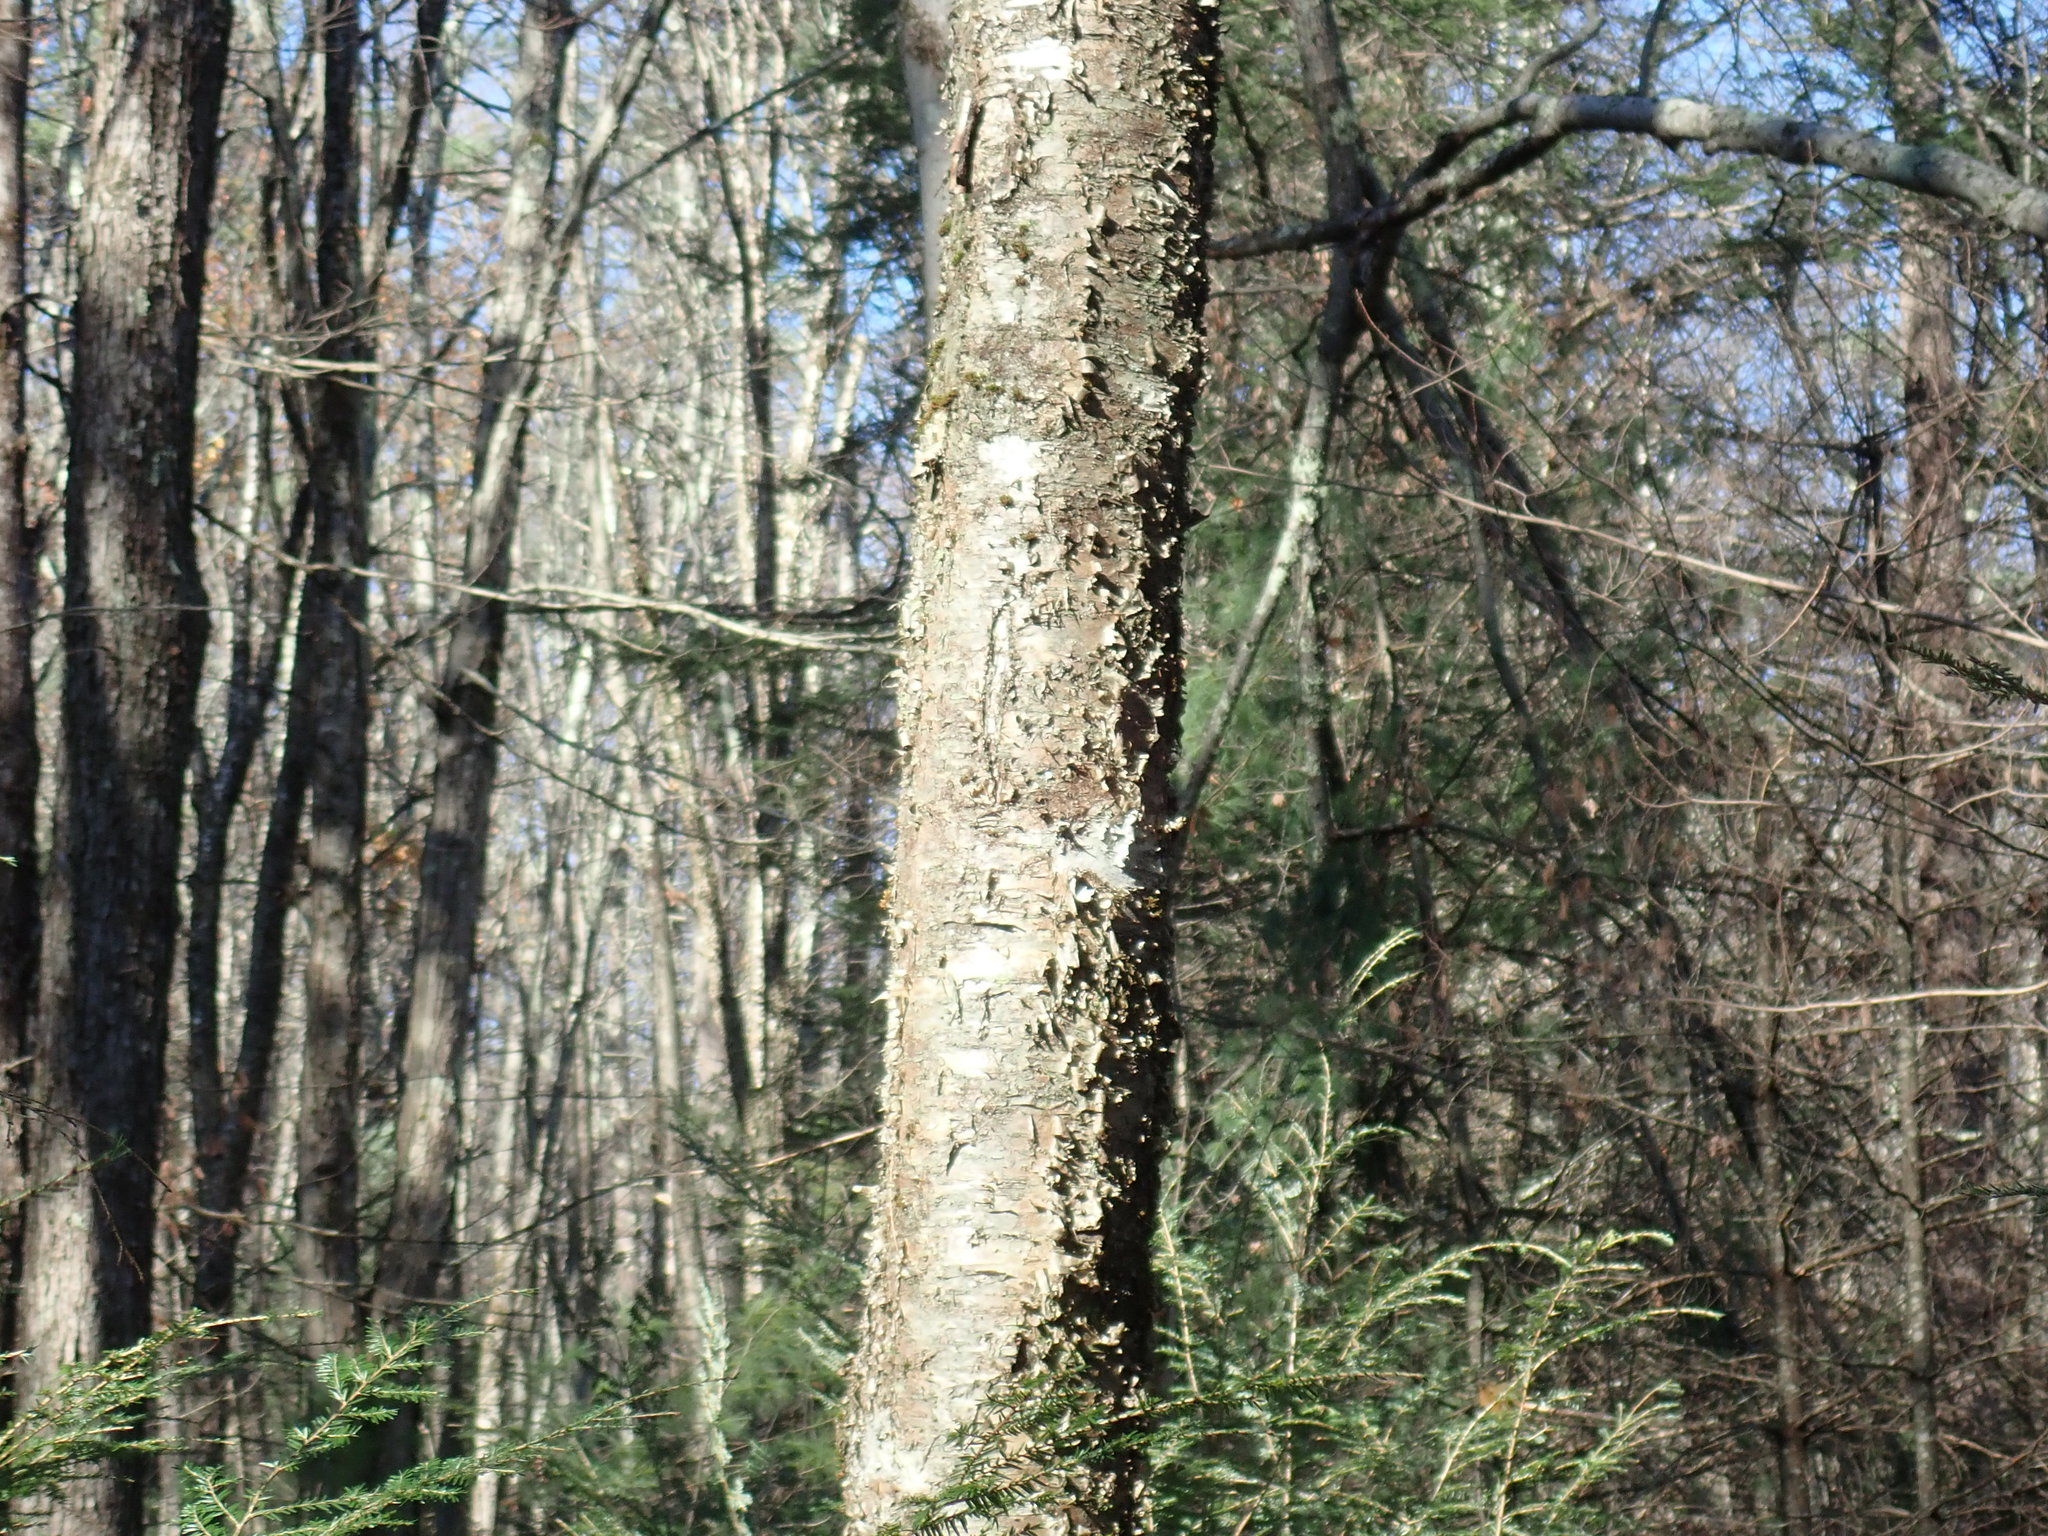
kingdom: Plantae
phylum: Tracheophyta
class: Magnoliopsida
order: Fagales
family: Betulaceae
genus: Betula
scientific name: Betula alleghaniensis
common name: Yellow birch
